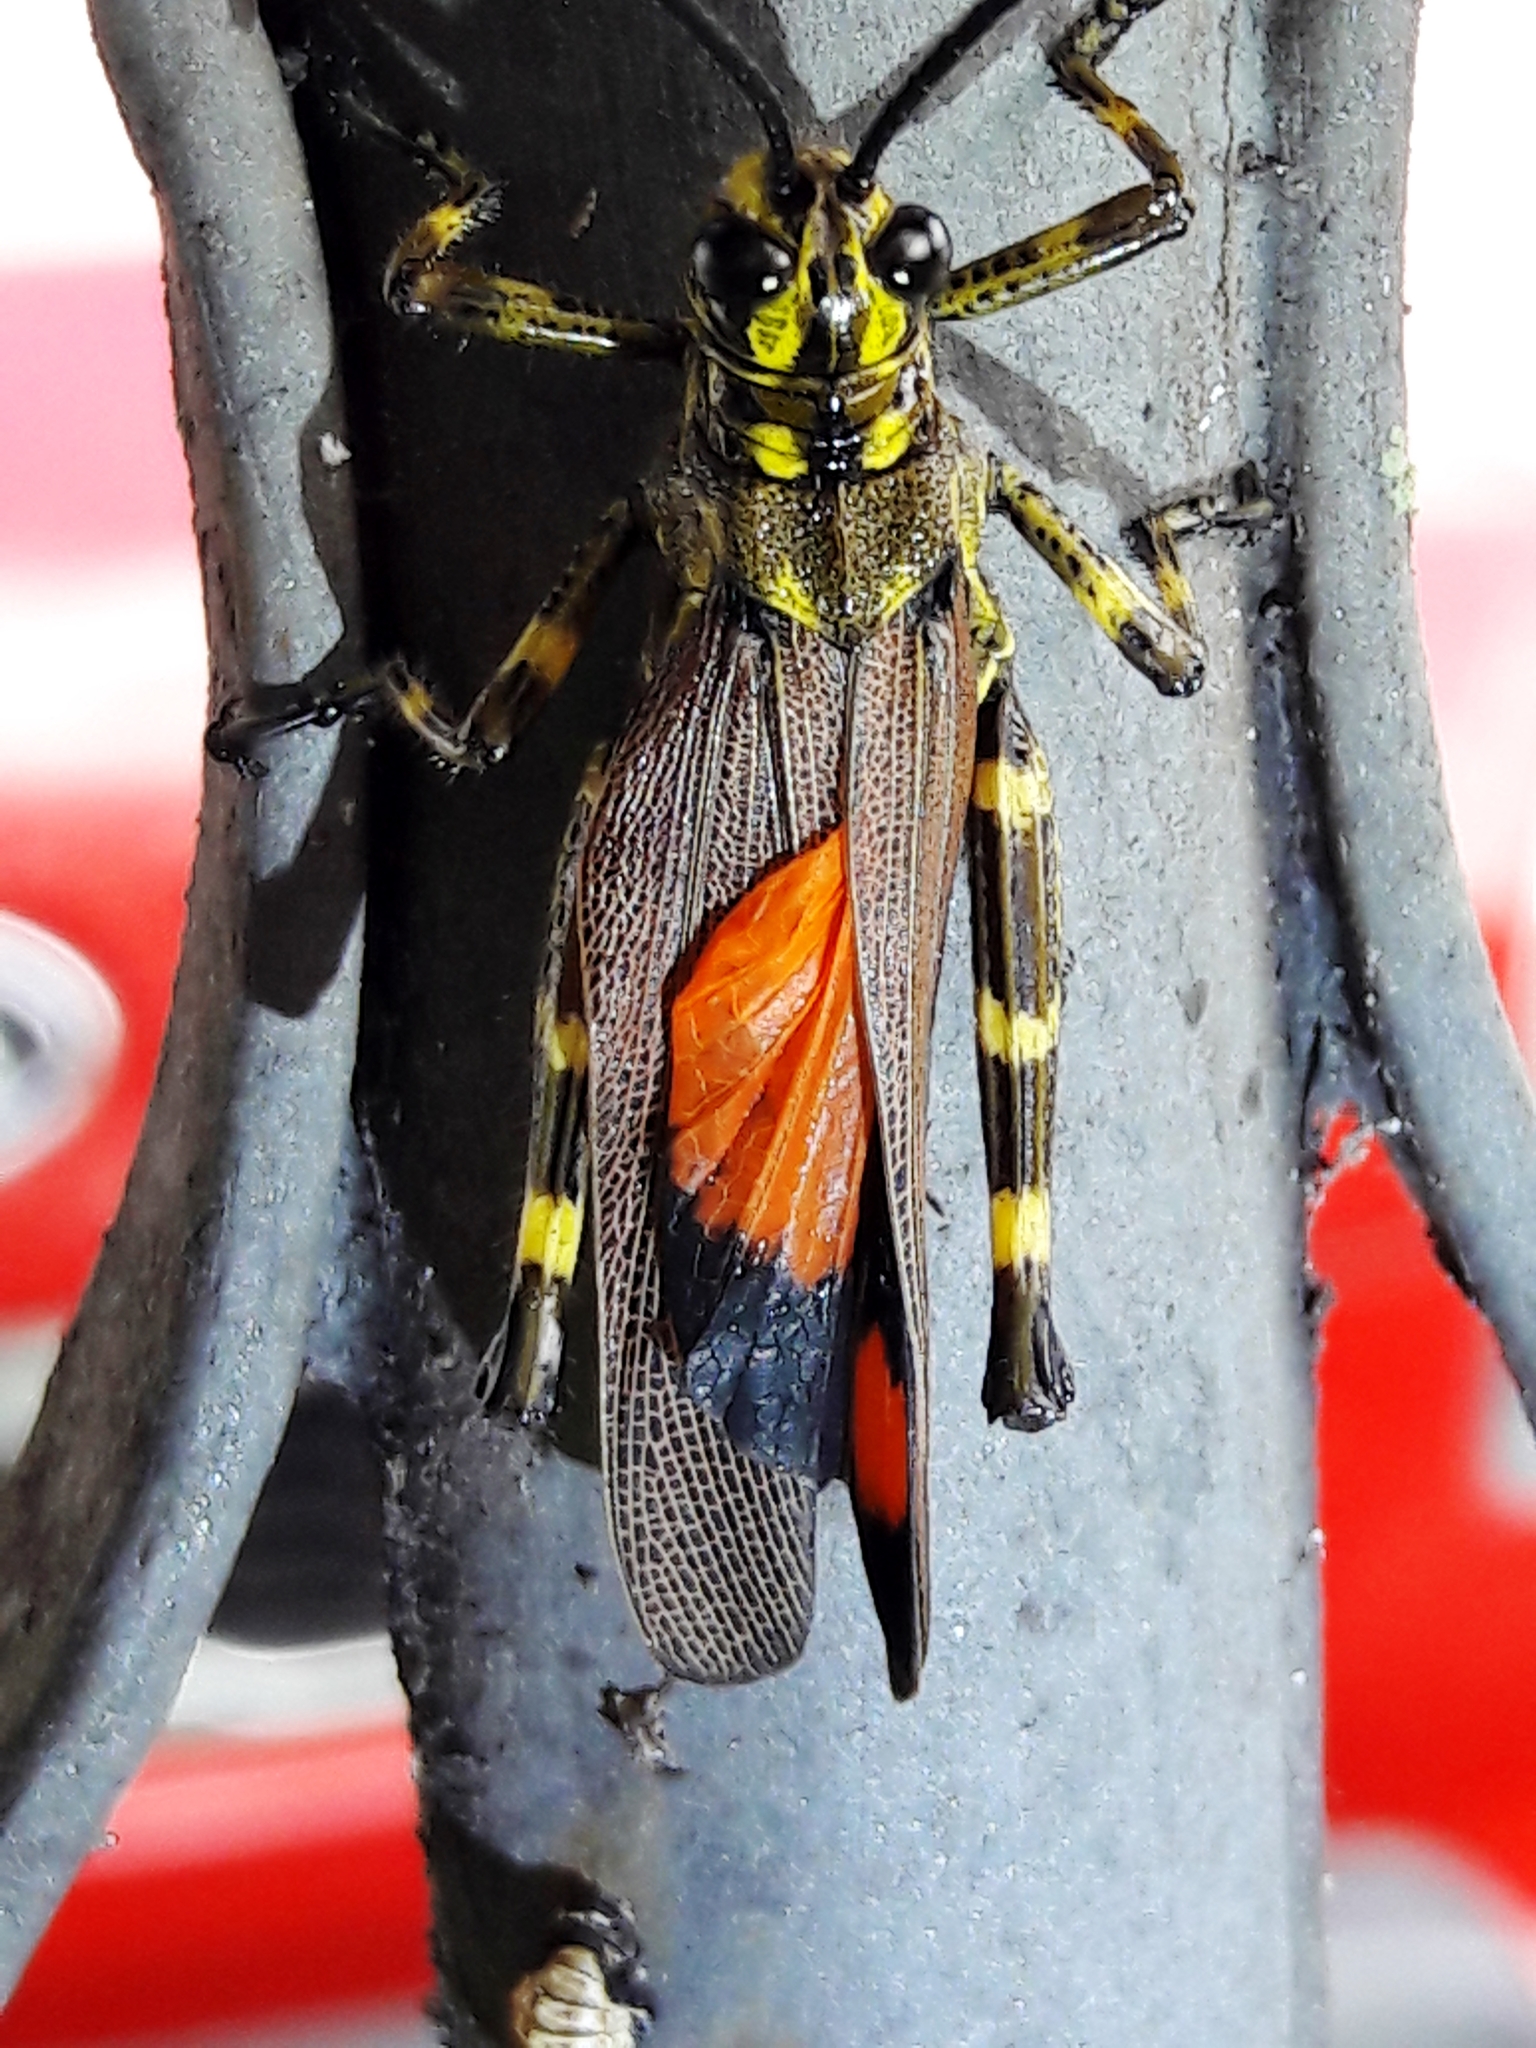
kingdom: Animalia
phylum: Arthropoda
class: Insecta
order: Orthoptera
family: Romaleidae
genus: Chromacris
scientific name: Chromacris speciosa
